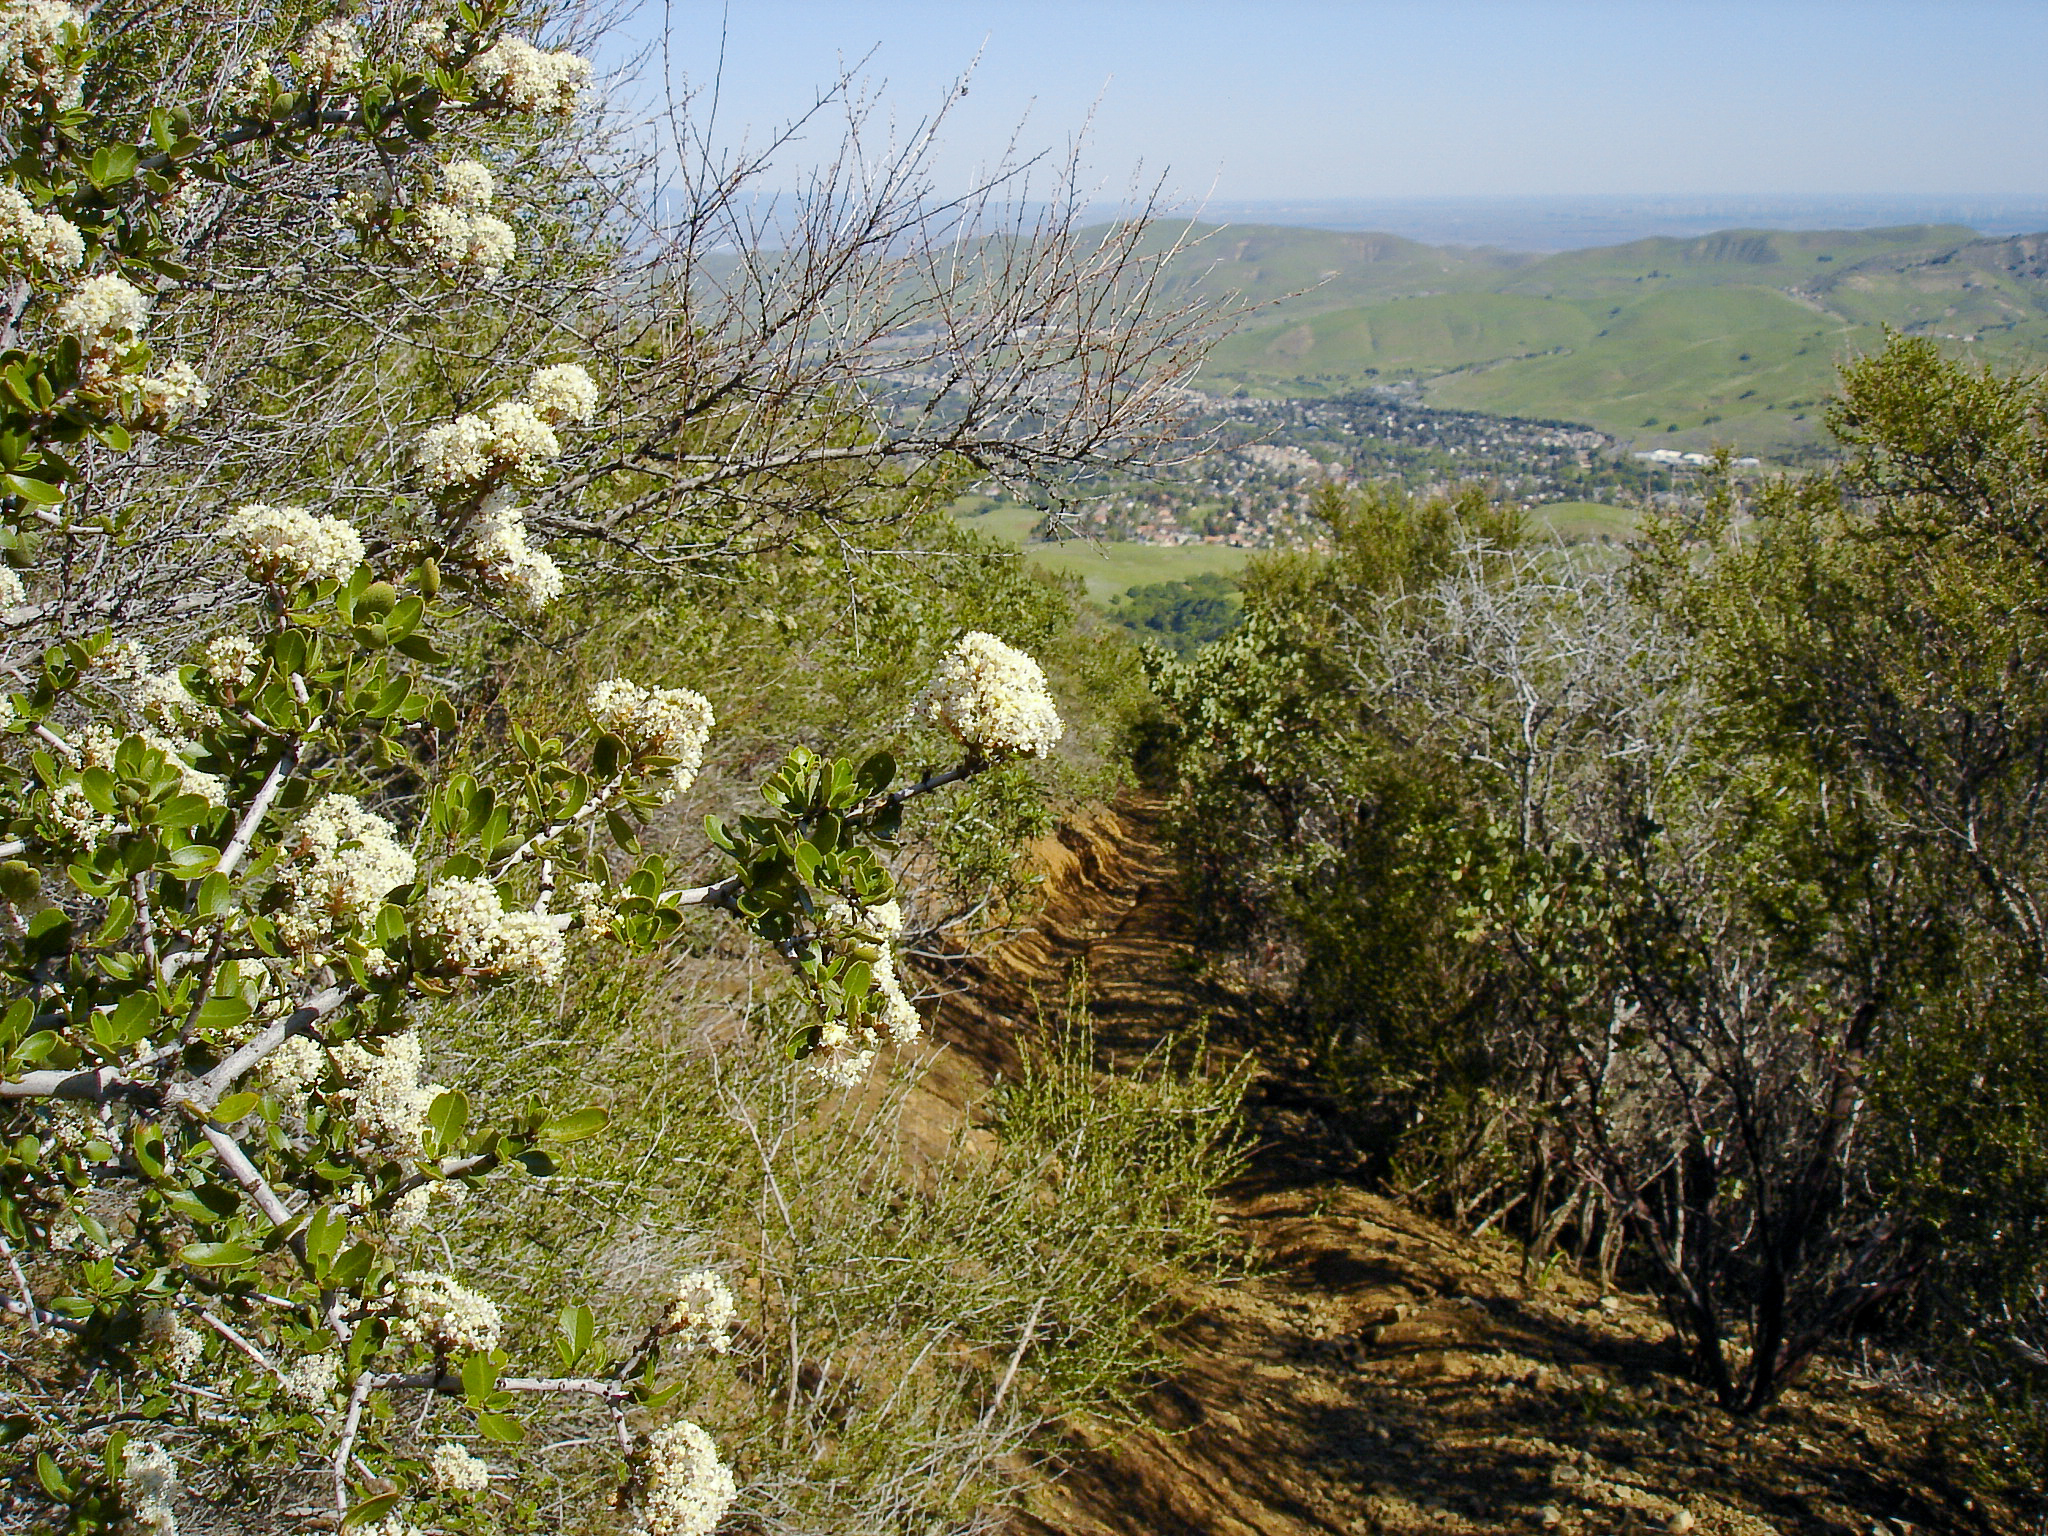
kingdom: Plantae
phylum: Tracheophyta
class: Magnoliopsida
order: Rosales
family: Rhamnaceae
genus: Ceanothus
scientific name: Ceanothus cuneatus
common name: Cuneate ceanothus
